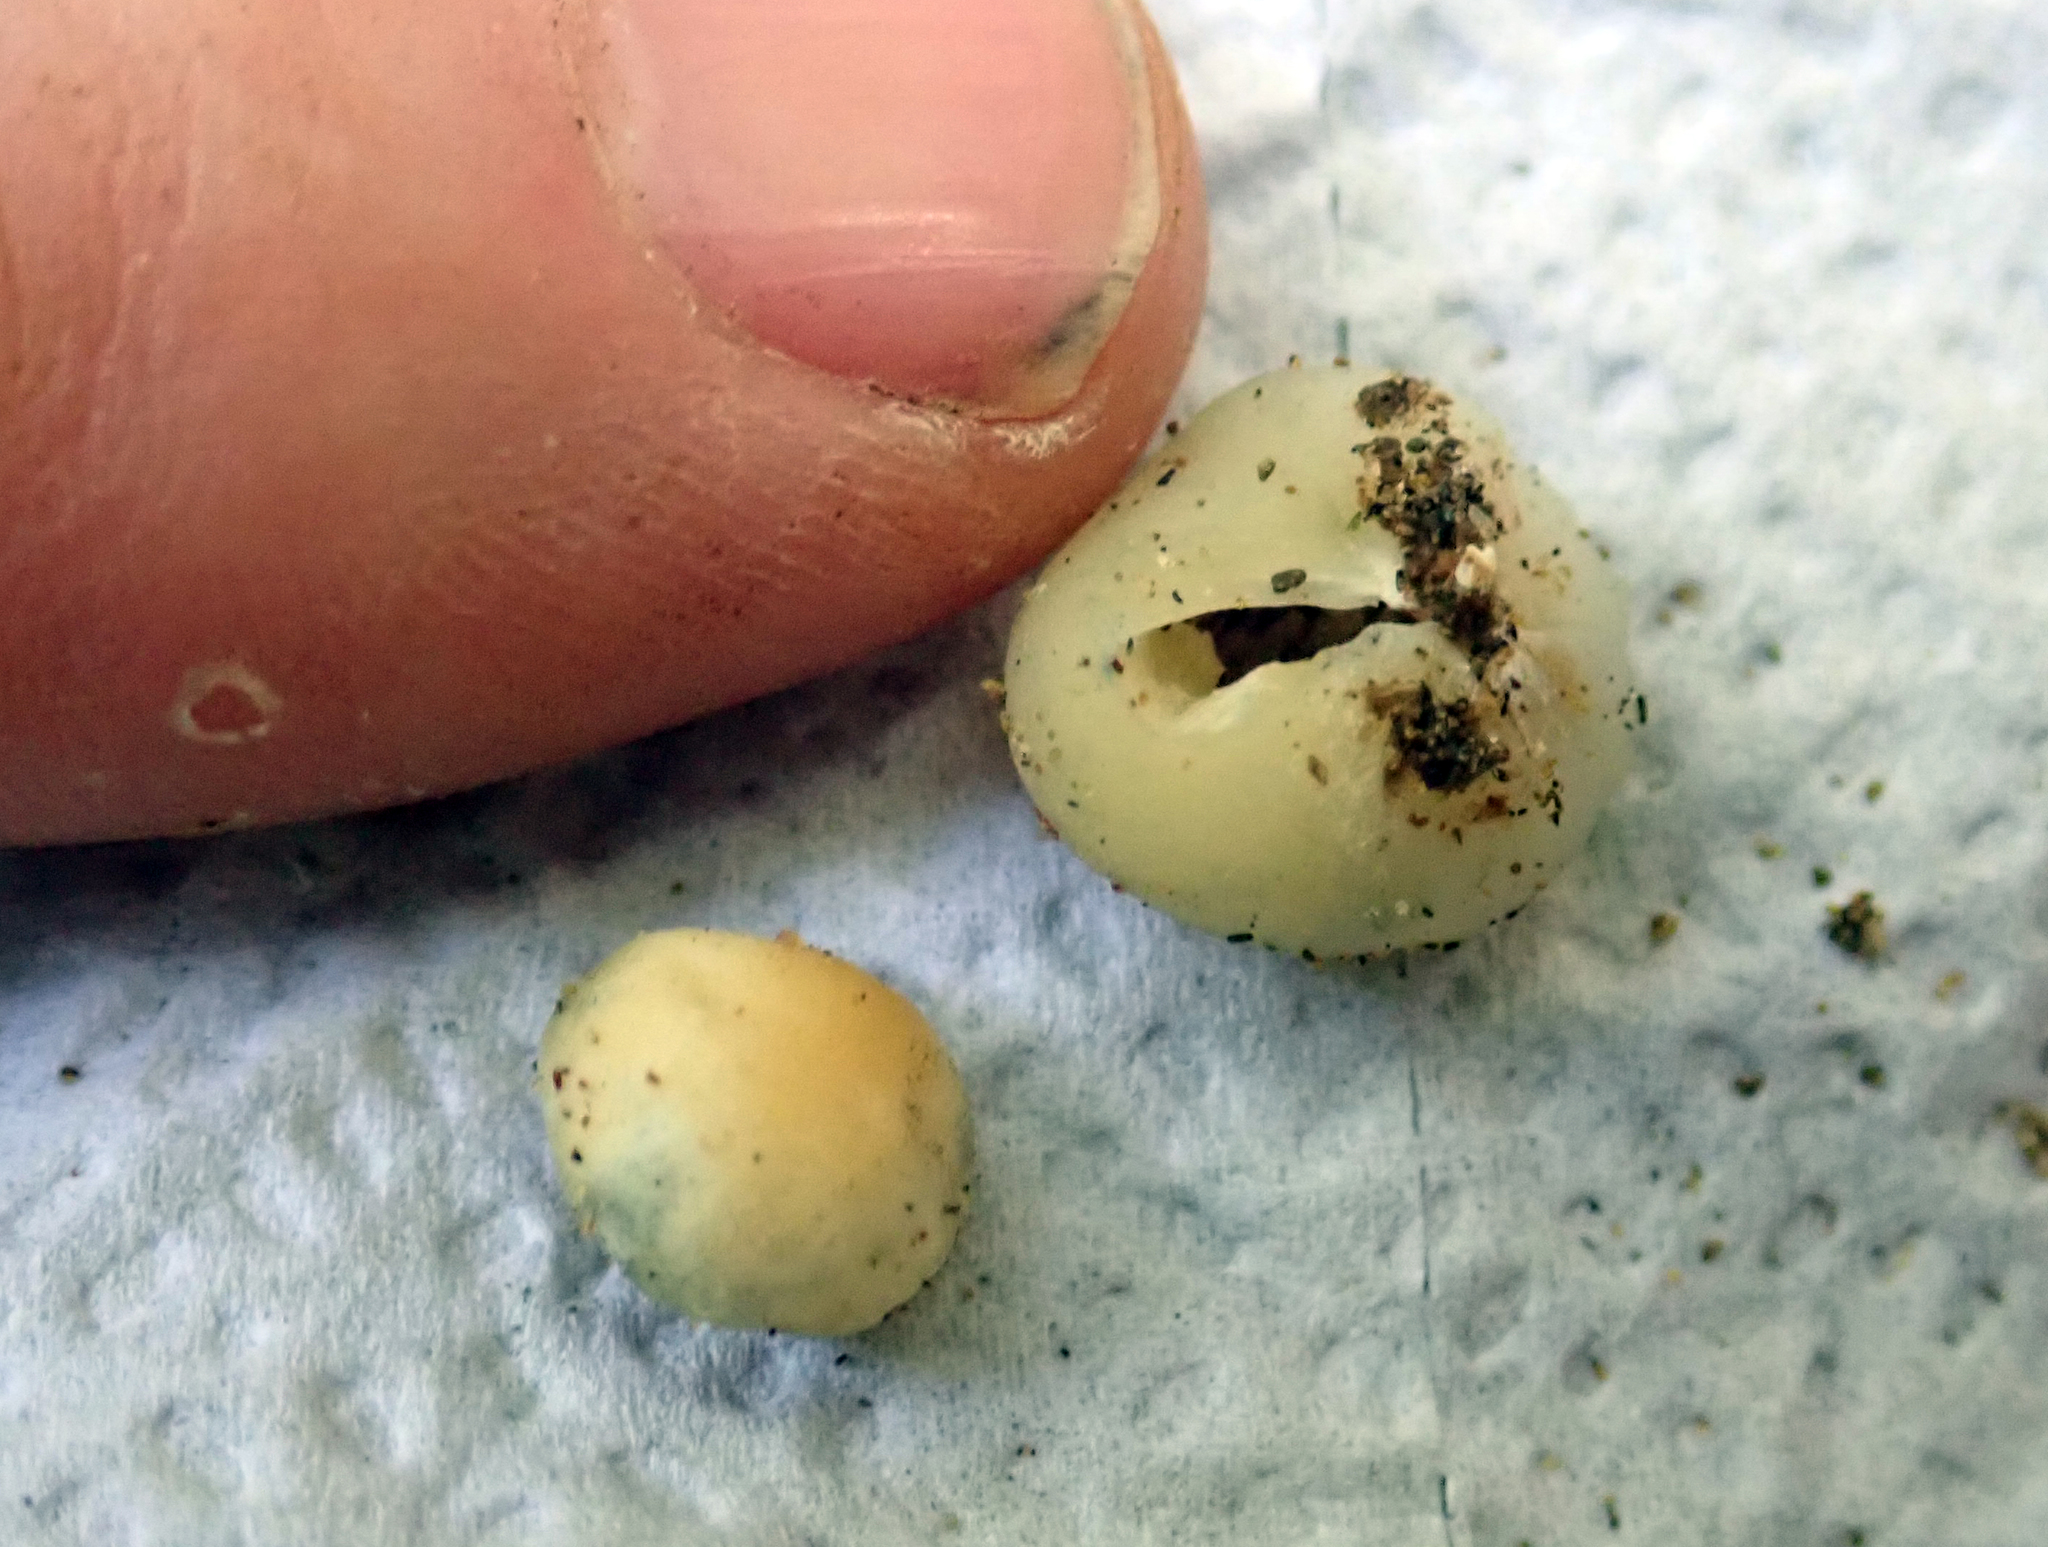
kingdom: Fungi
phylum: Basidiomycota
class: Agaricomycetes
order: Agaricales
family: Hymenogastraceae
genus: Psilocybe
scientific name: Psilocybe weraroa
